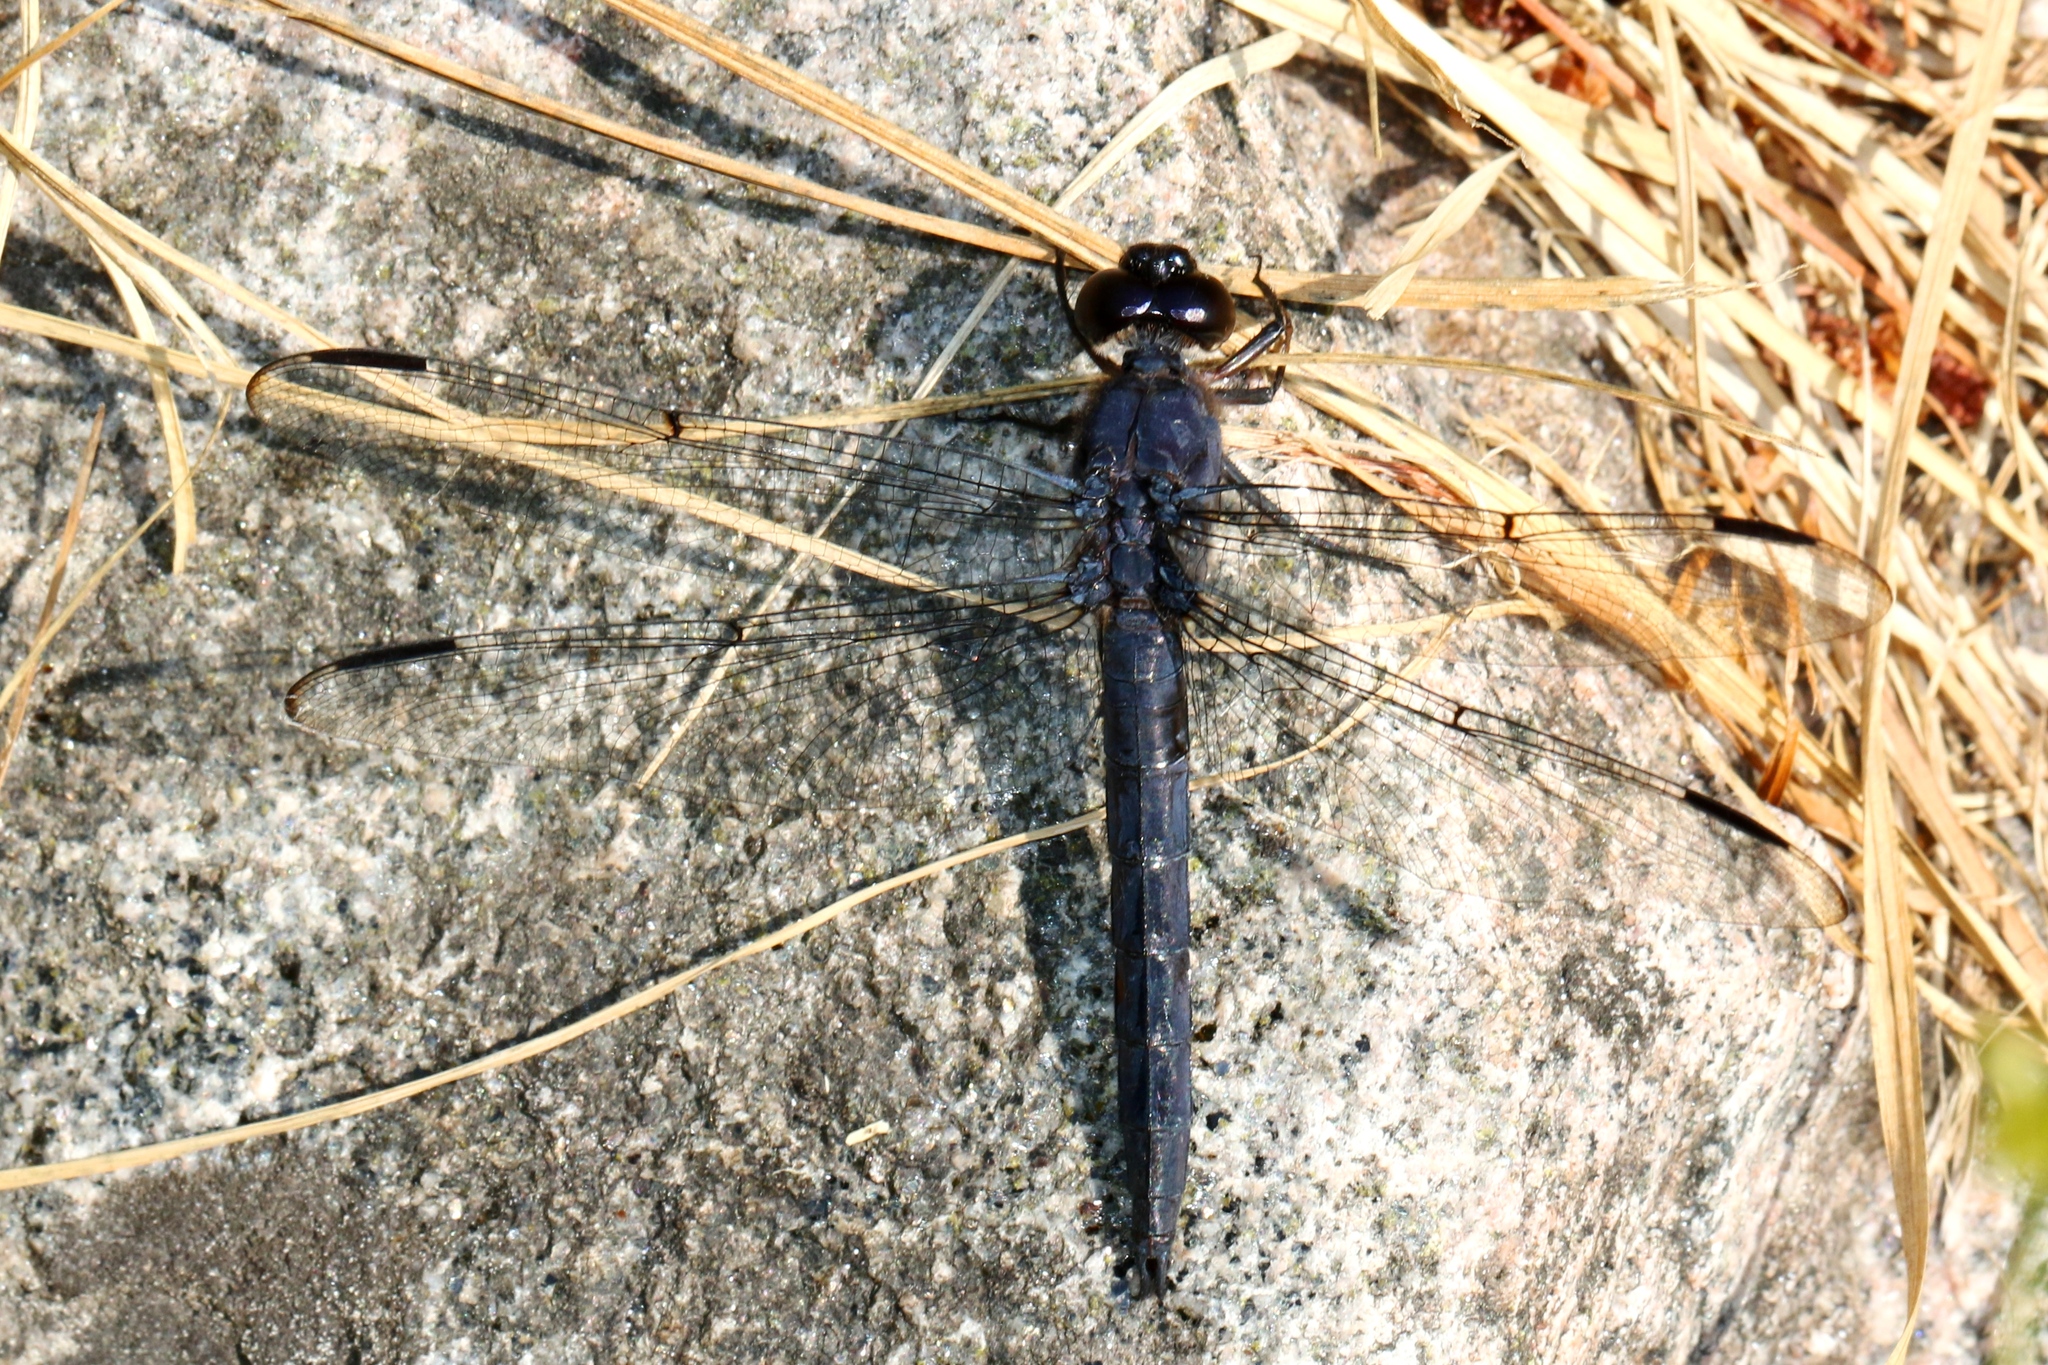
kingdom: Animalia
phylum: Arthropoda
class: Insecta
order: Odonata
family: Libellulidae
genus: Libellula
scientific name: Libellula incesta
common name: Slaty skimmer
